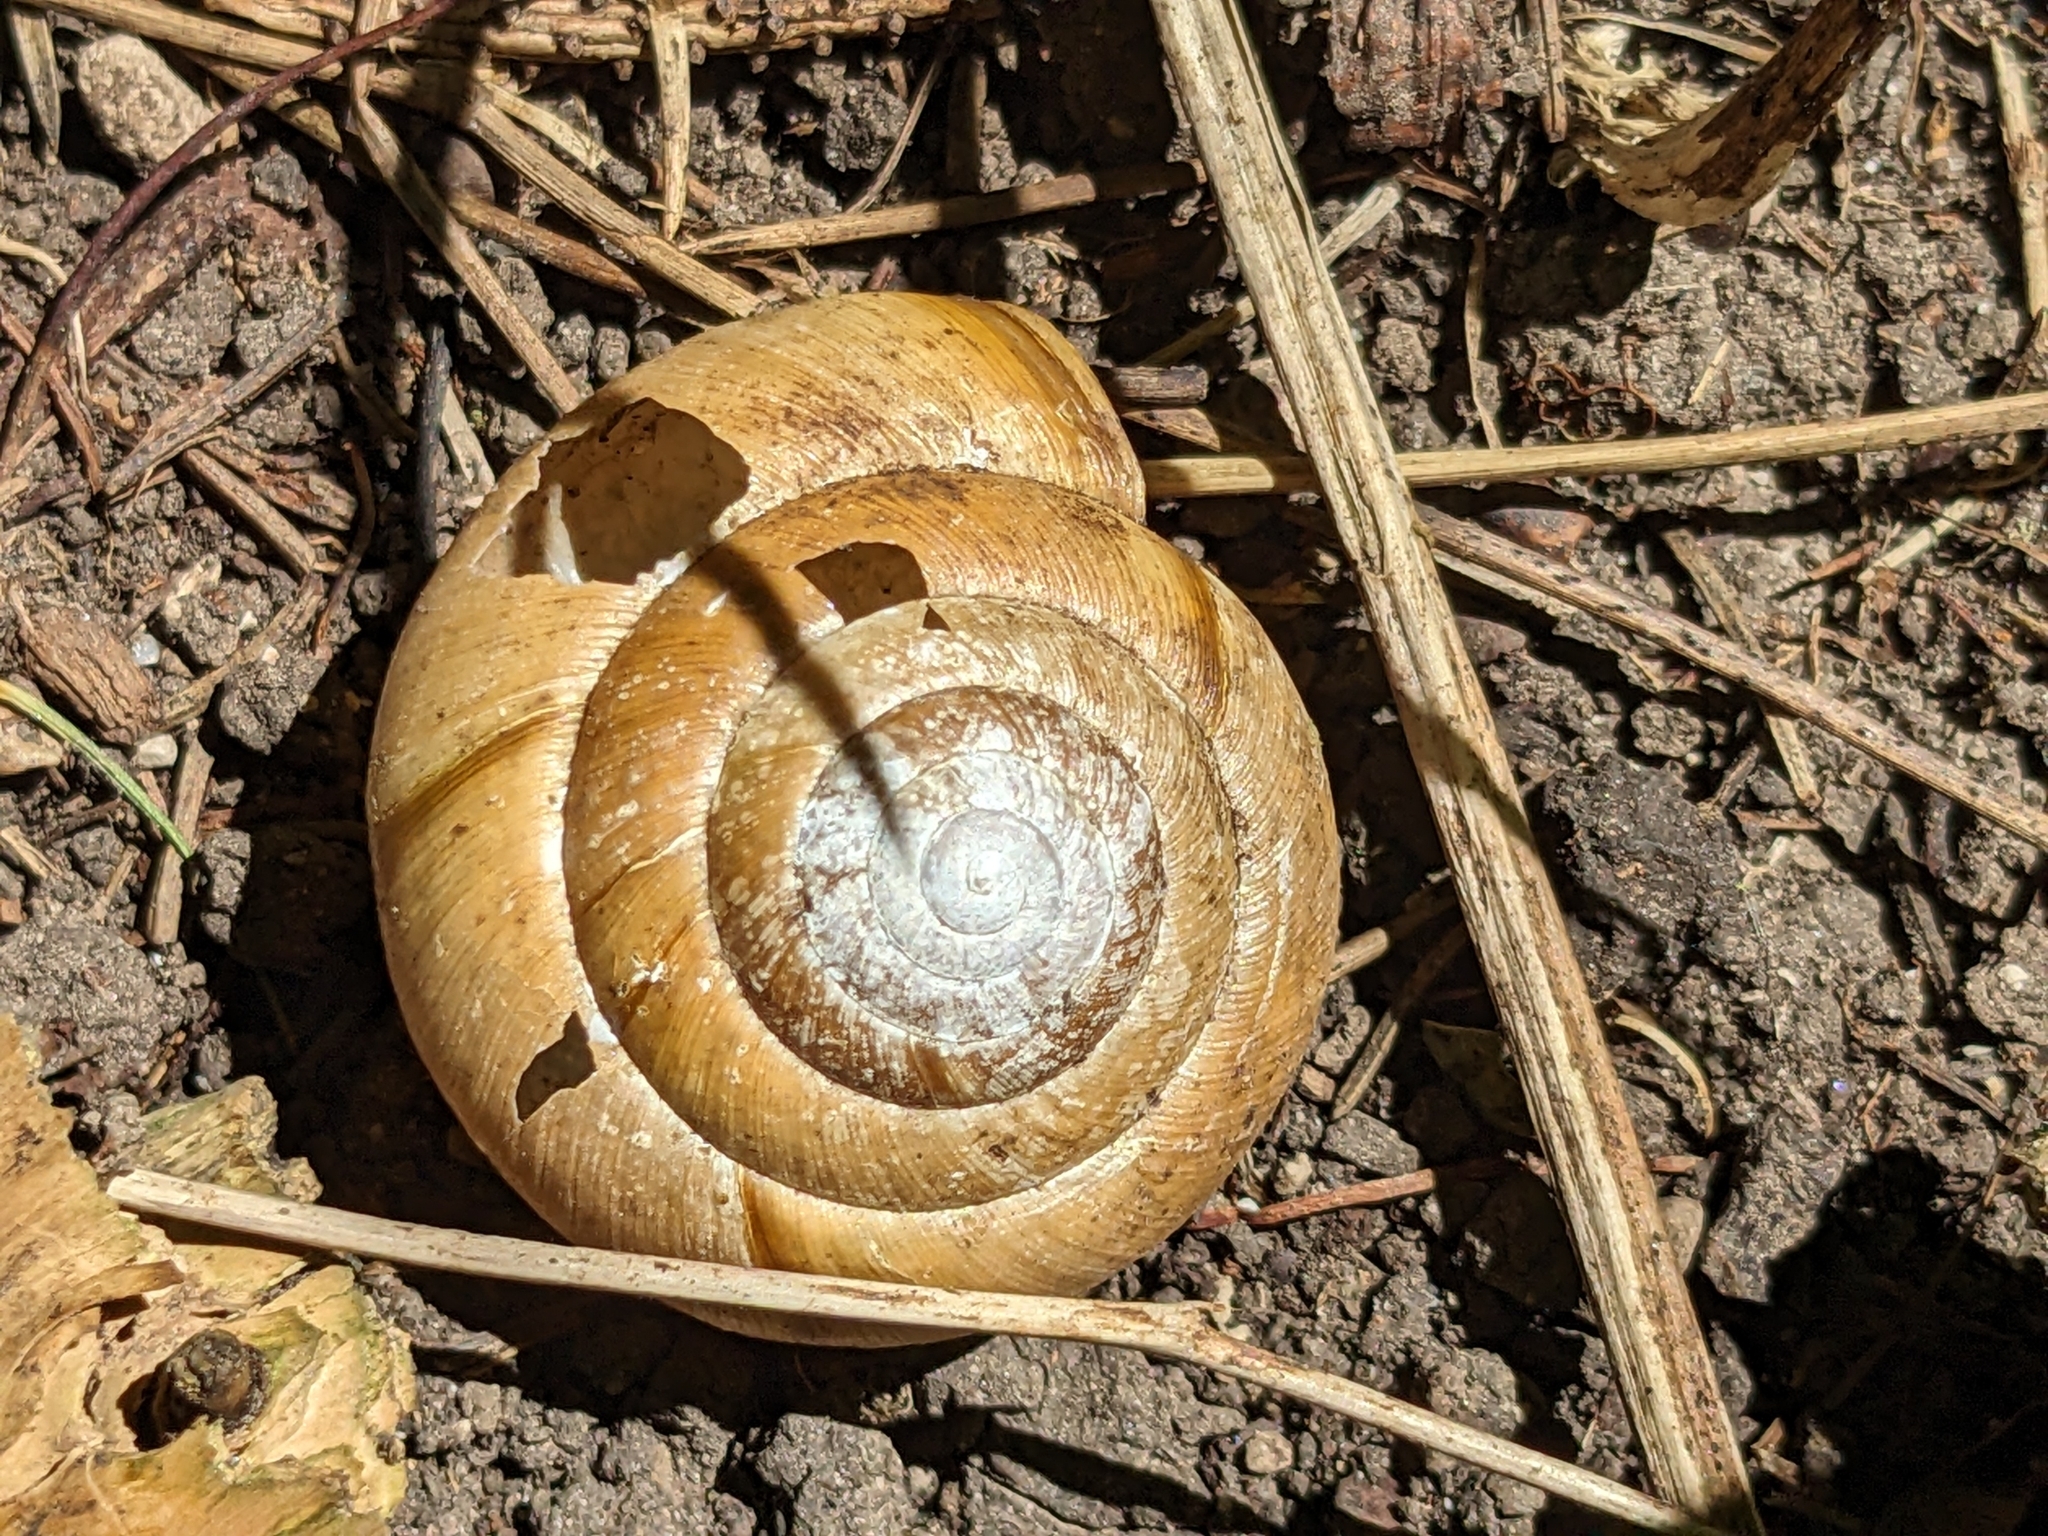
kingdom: Animalia
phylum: Mollusca
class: Gastropoda
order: Stylommatophora
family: Zonitidae
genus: Aegopis
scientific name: Aegopis verticillus
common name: Giant glass snail
